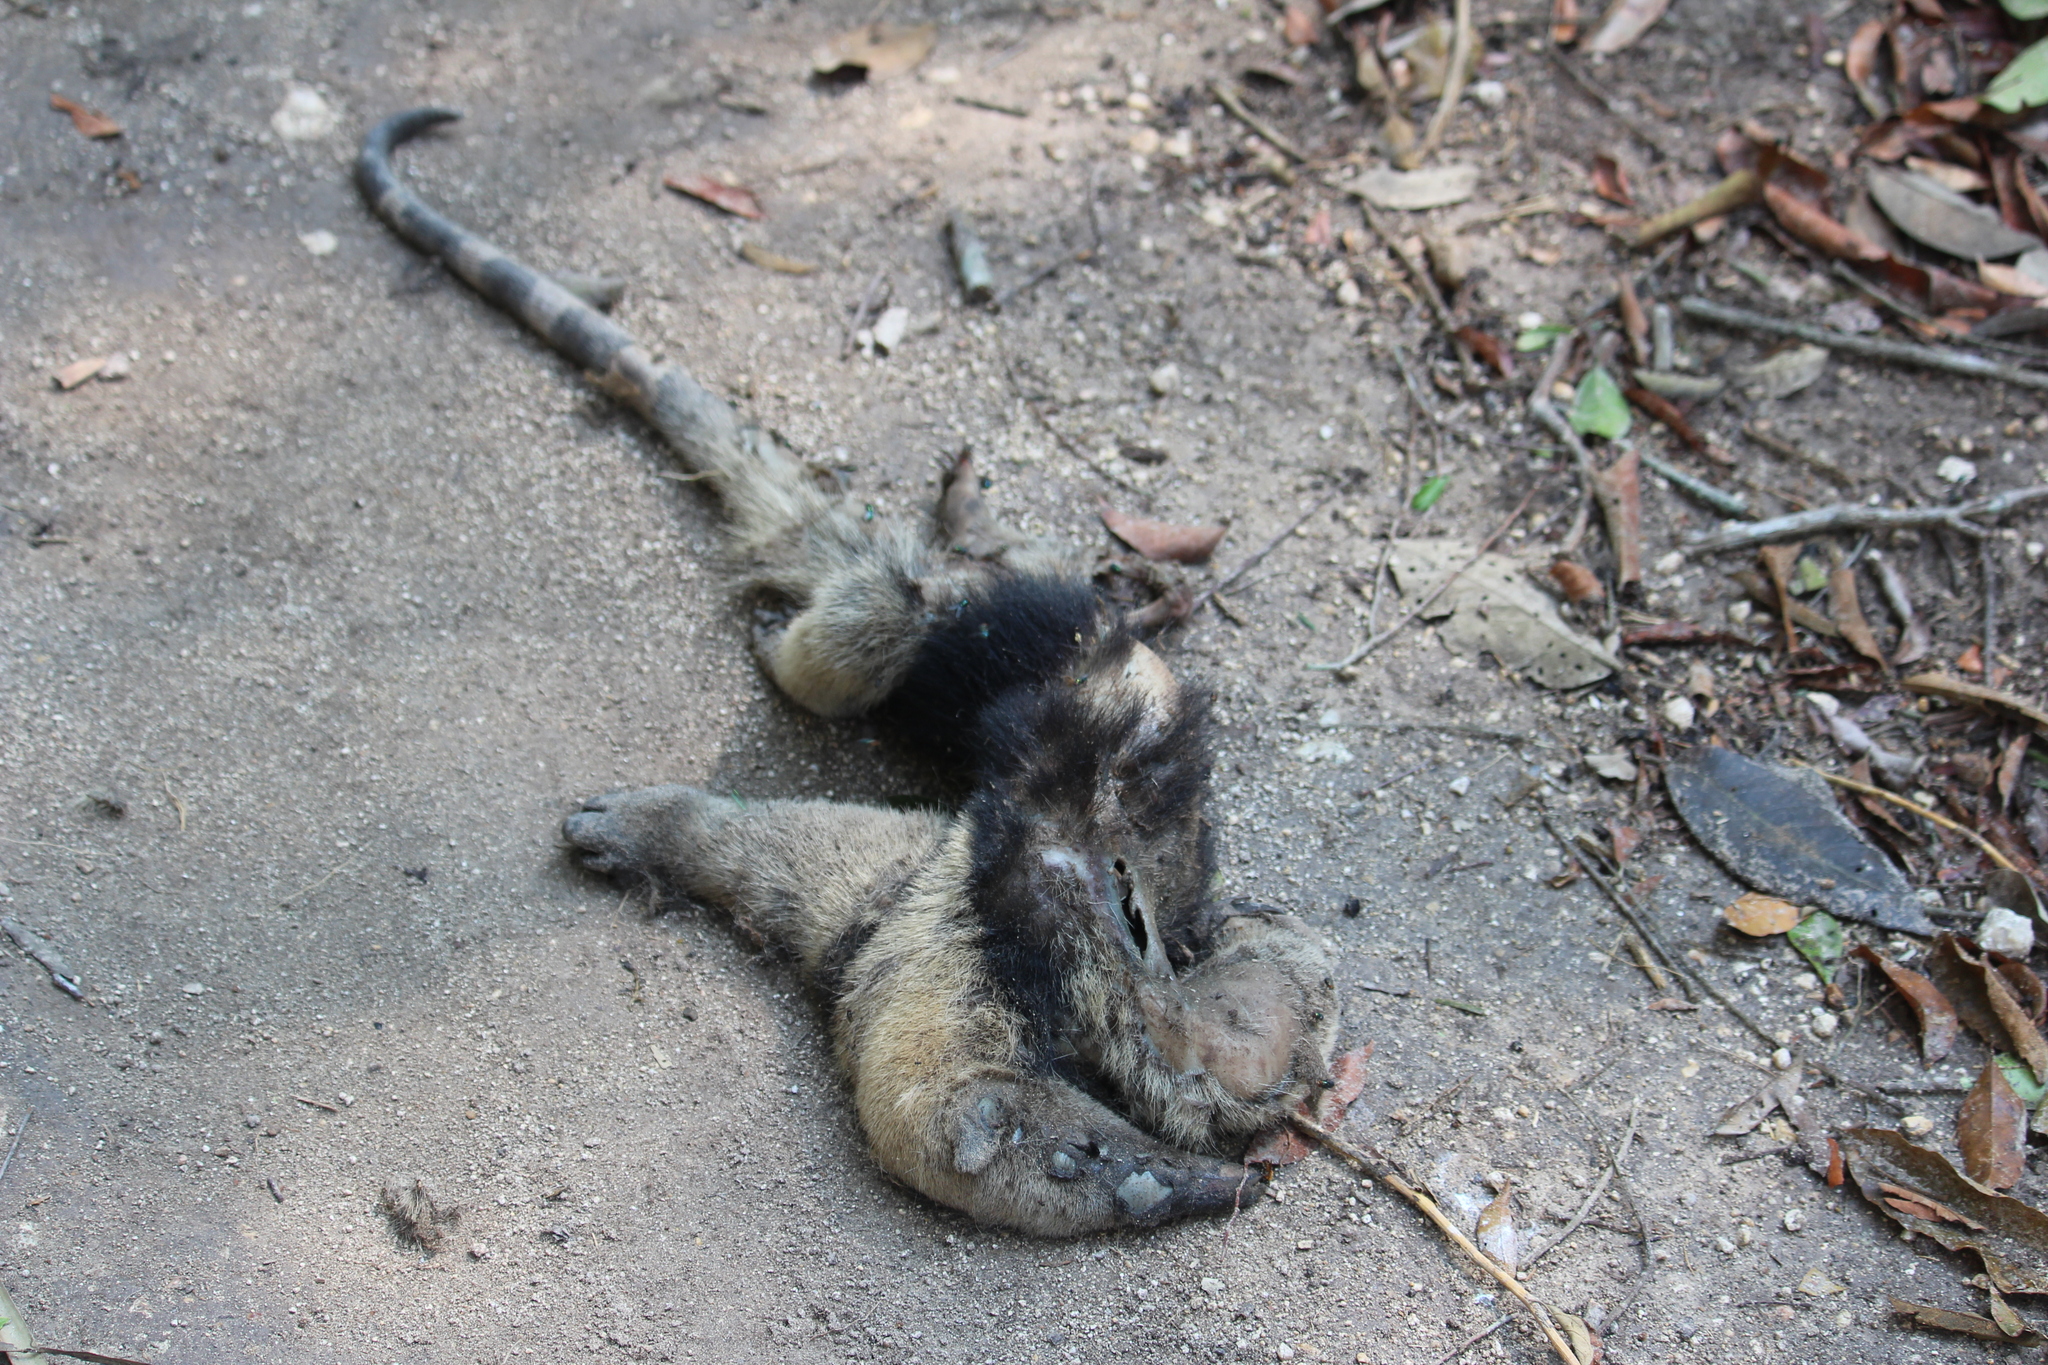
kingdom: Animalia
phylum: Chordata
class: Mammalia
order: Pilosa
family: Myrmecophagidae
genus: Tamandua
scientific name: Tamandua mexicana
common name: Northern tamandua
